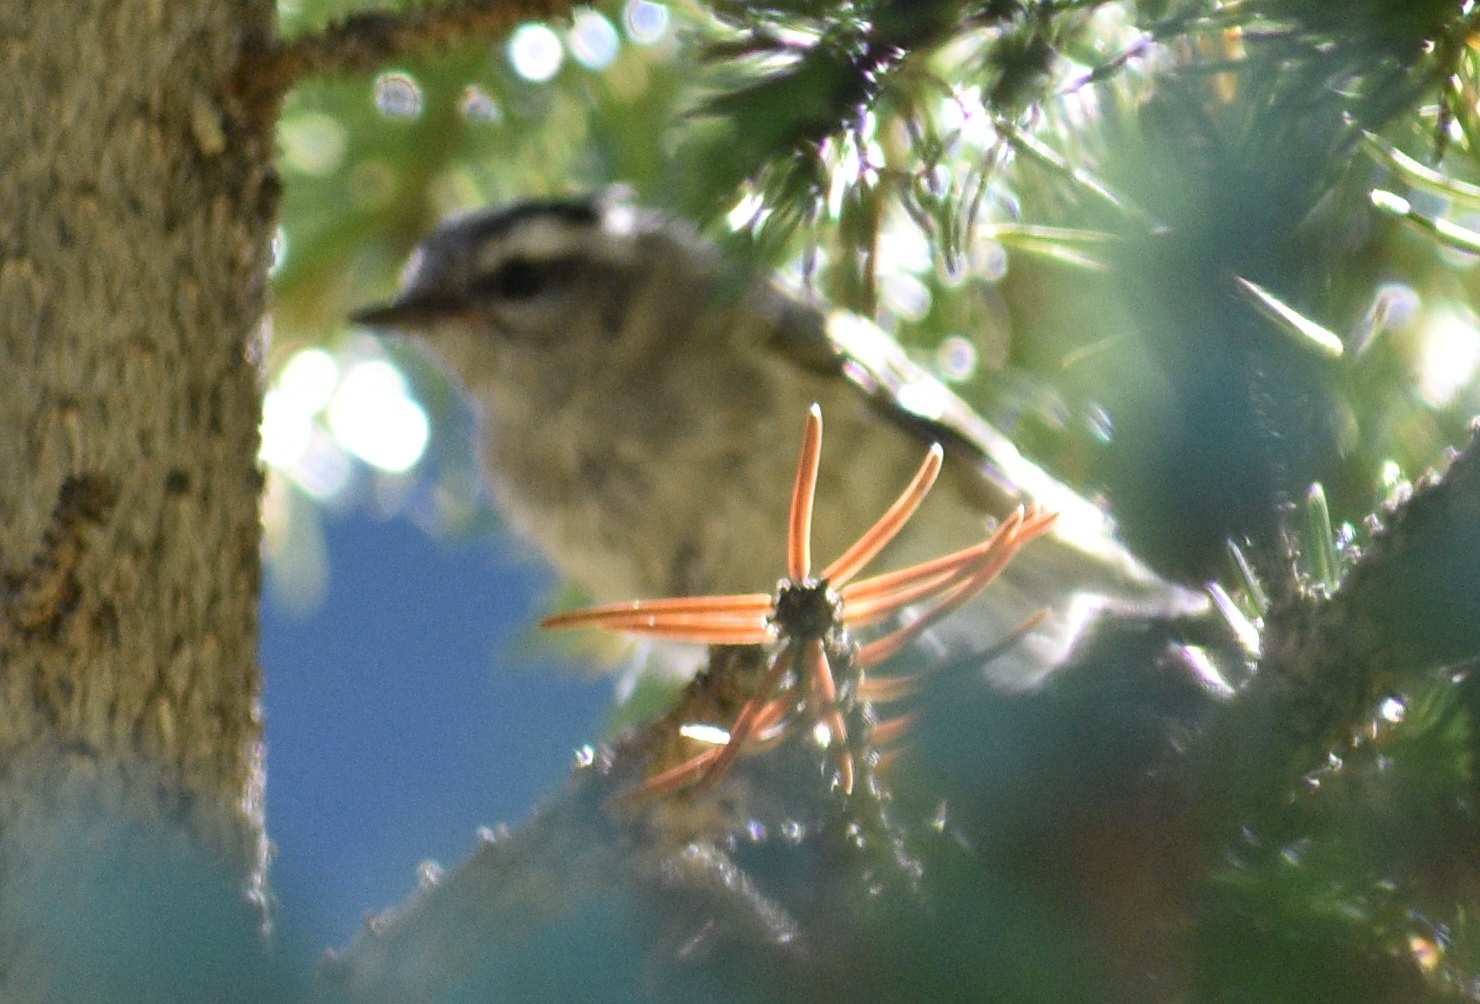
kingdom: Animalia
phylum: Chordata
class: Aves
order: Passeriformes
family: Regulidae
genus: Regulus
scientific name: Regulus satrapa
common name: Golden-crowned kinglet
